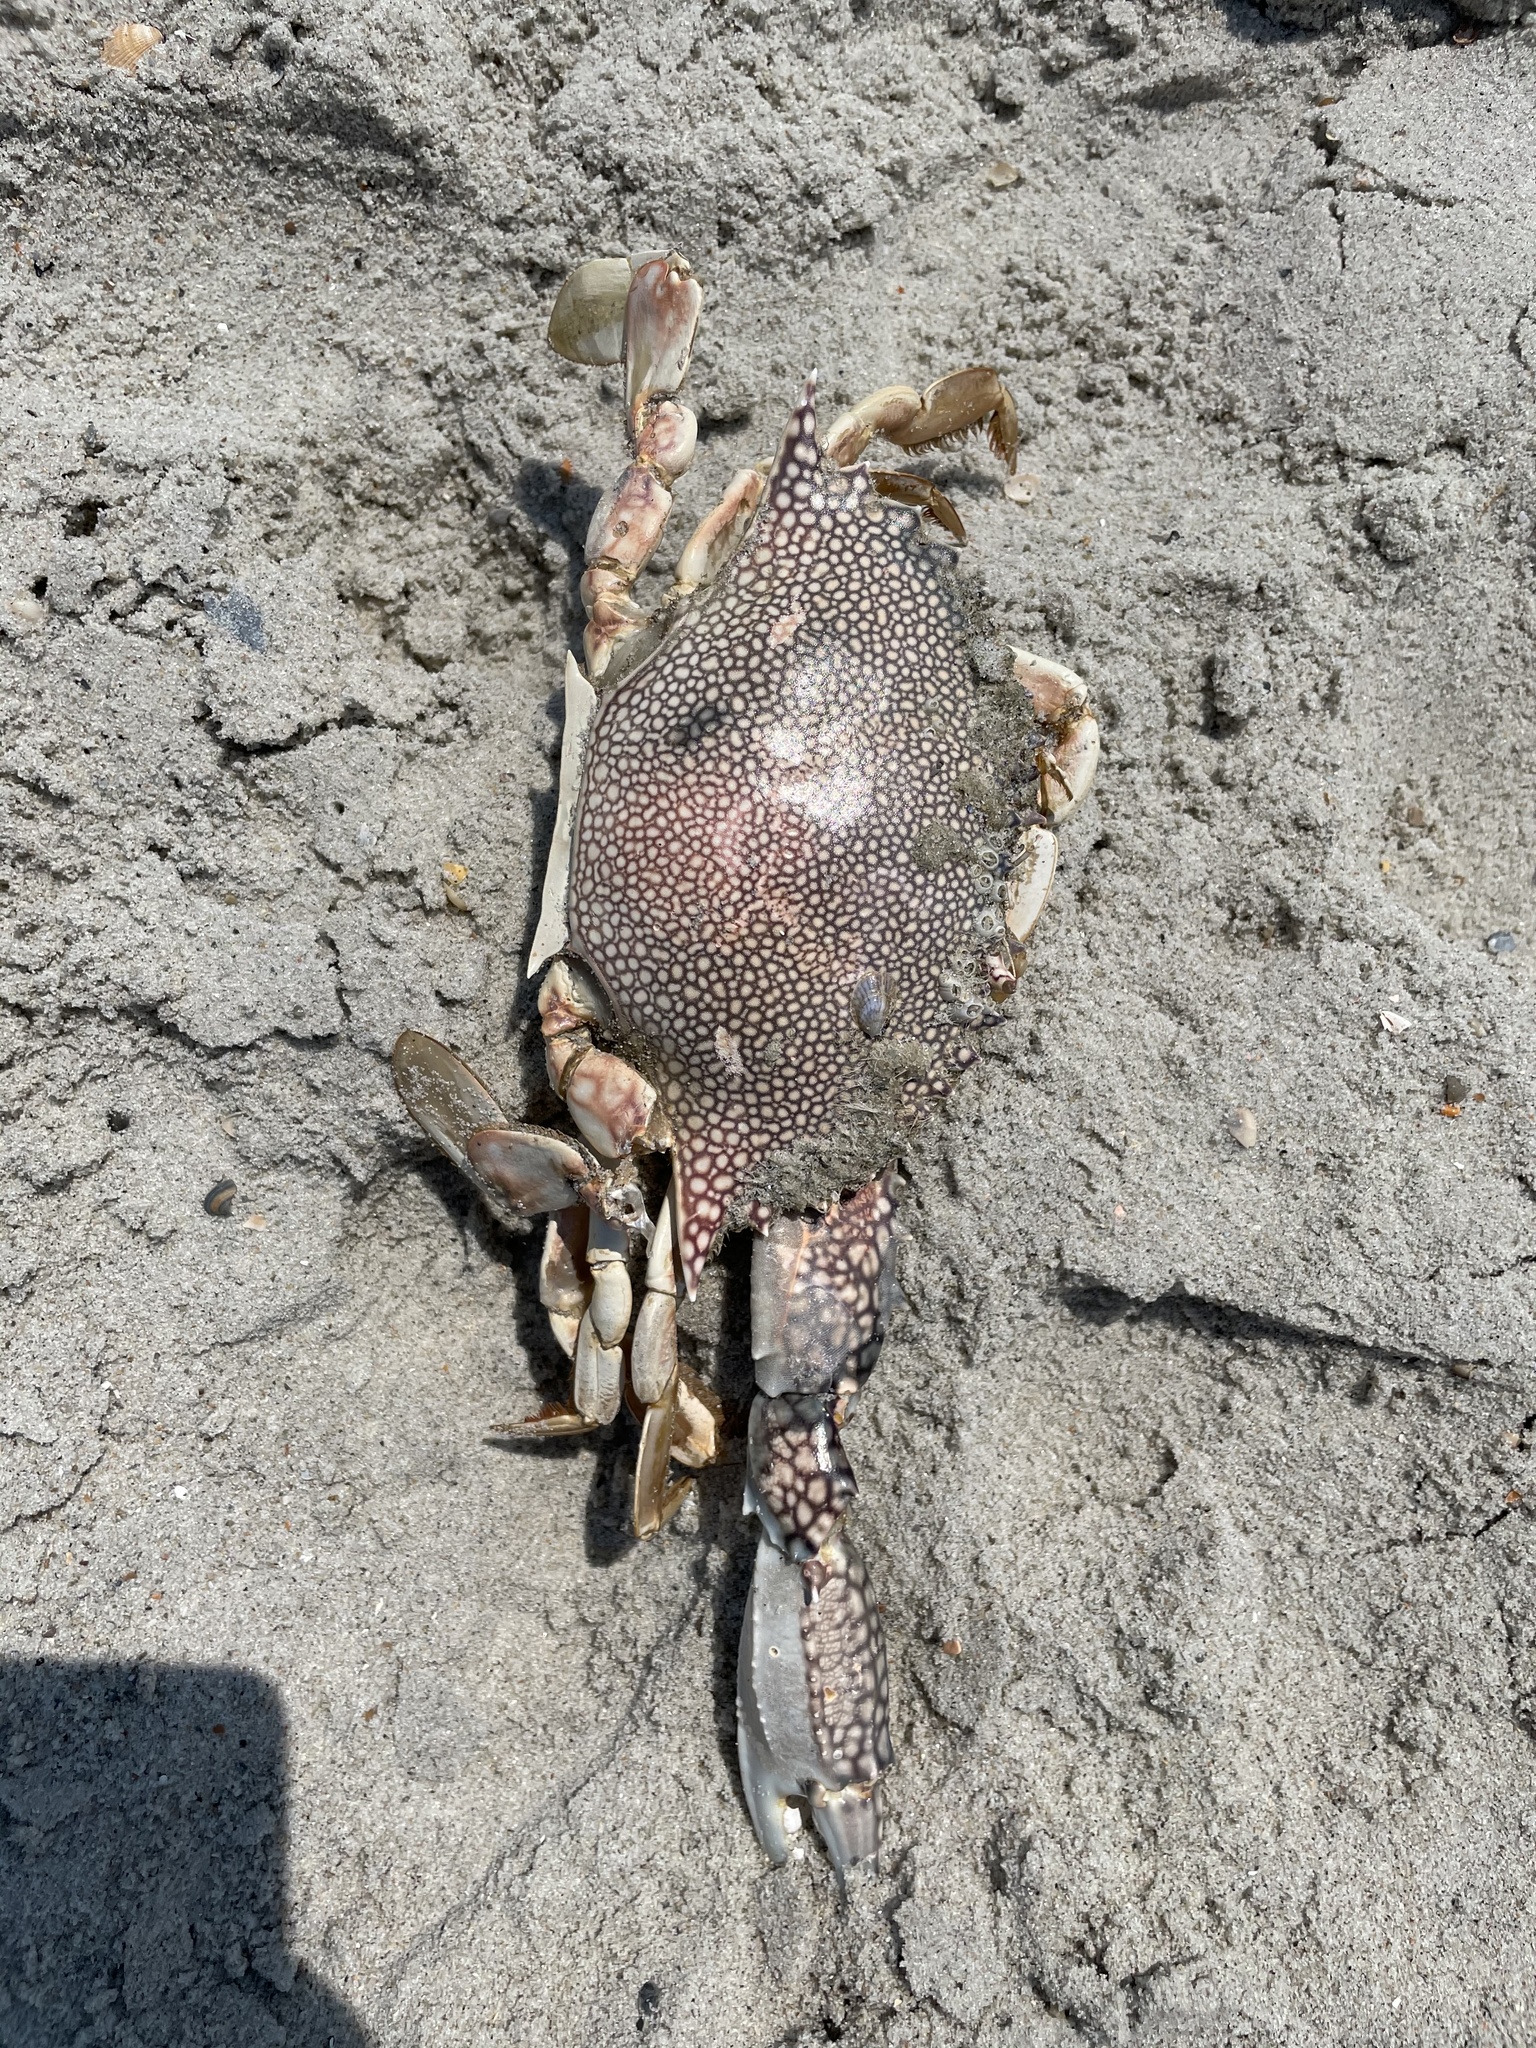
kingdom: Animalia
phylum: Arthropoda
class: Malacostraca
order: Decapoda
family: Portunidae
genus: Arenaeus
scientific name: Arenaeus cribrarius
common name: Speckled crab
